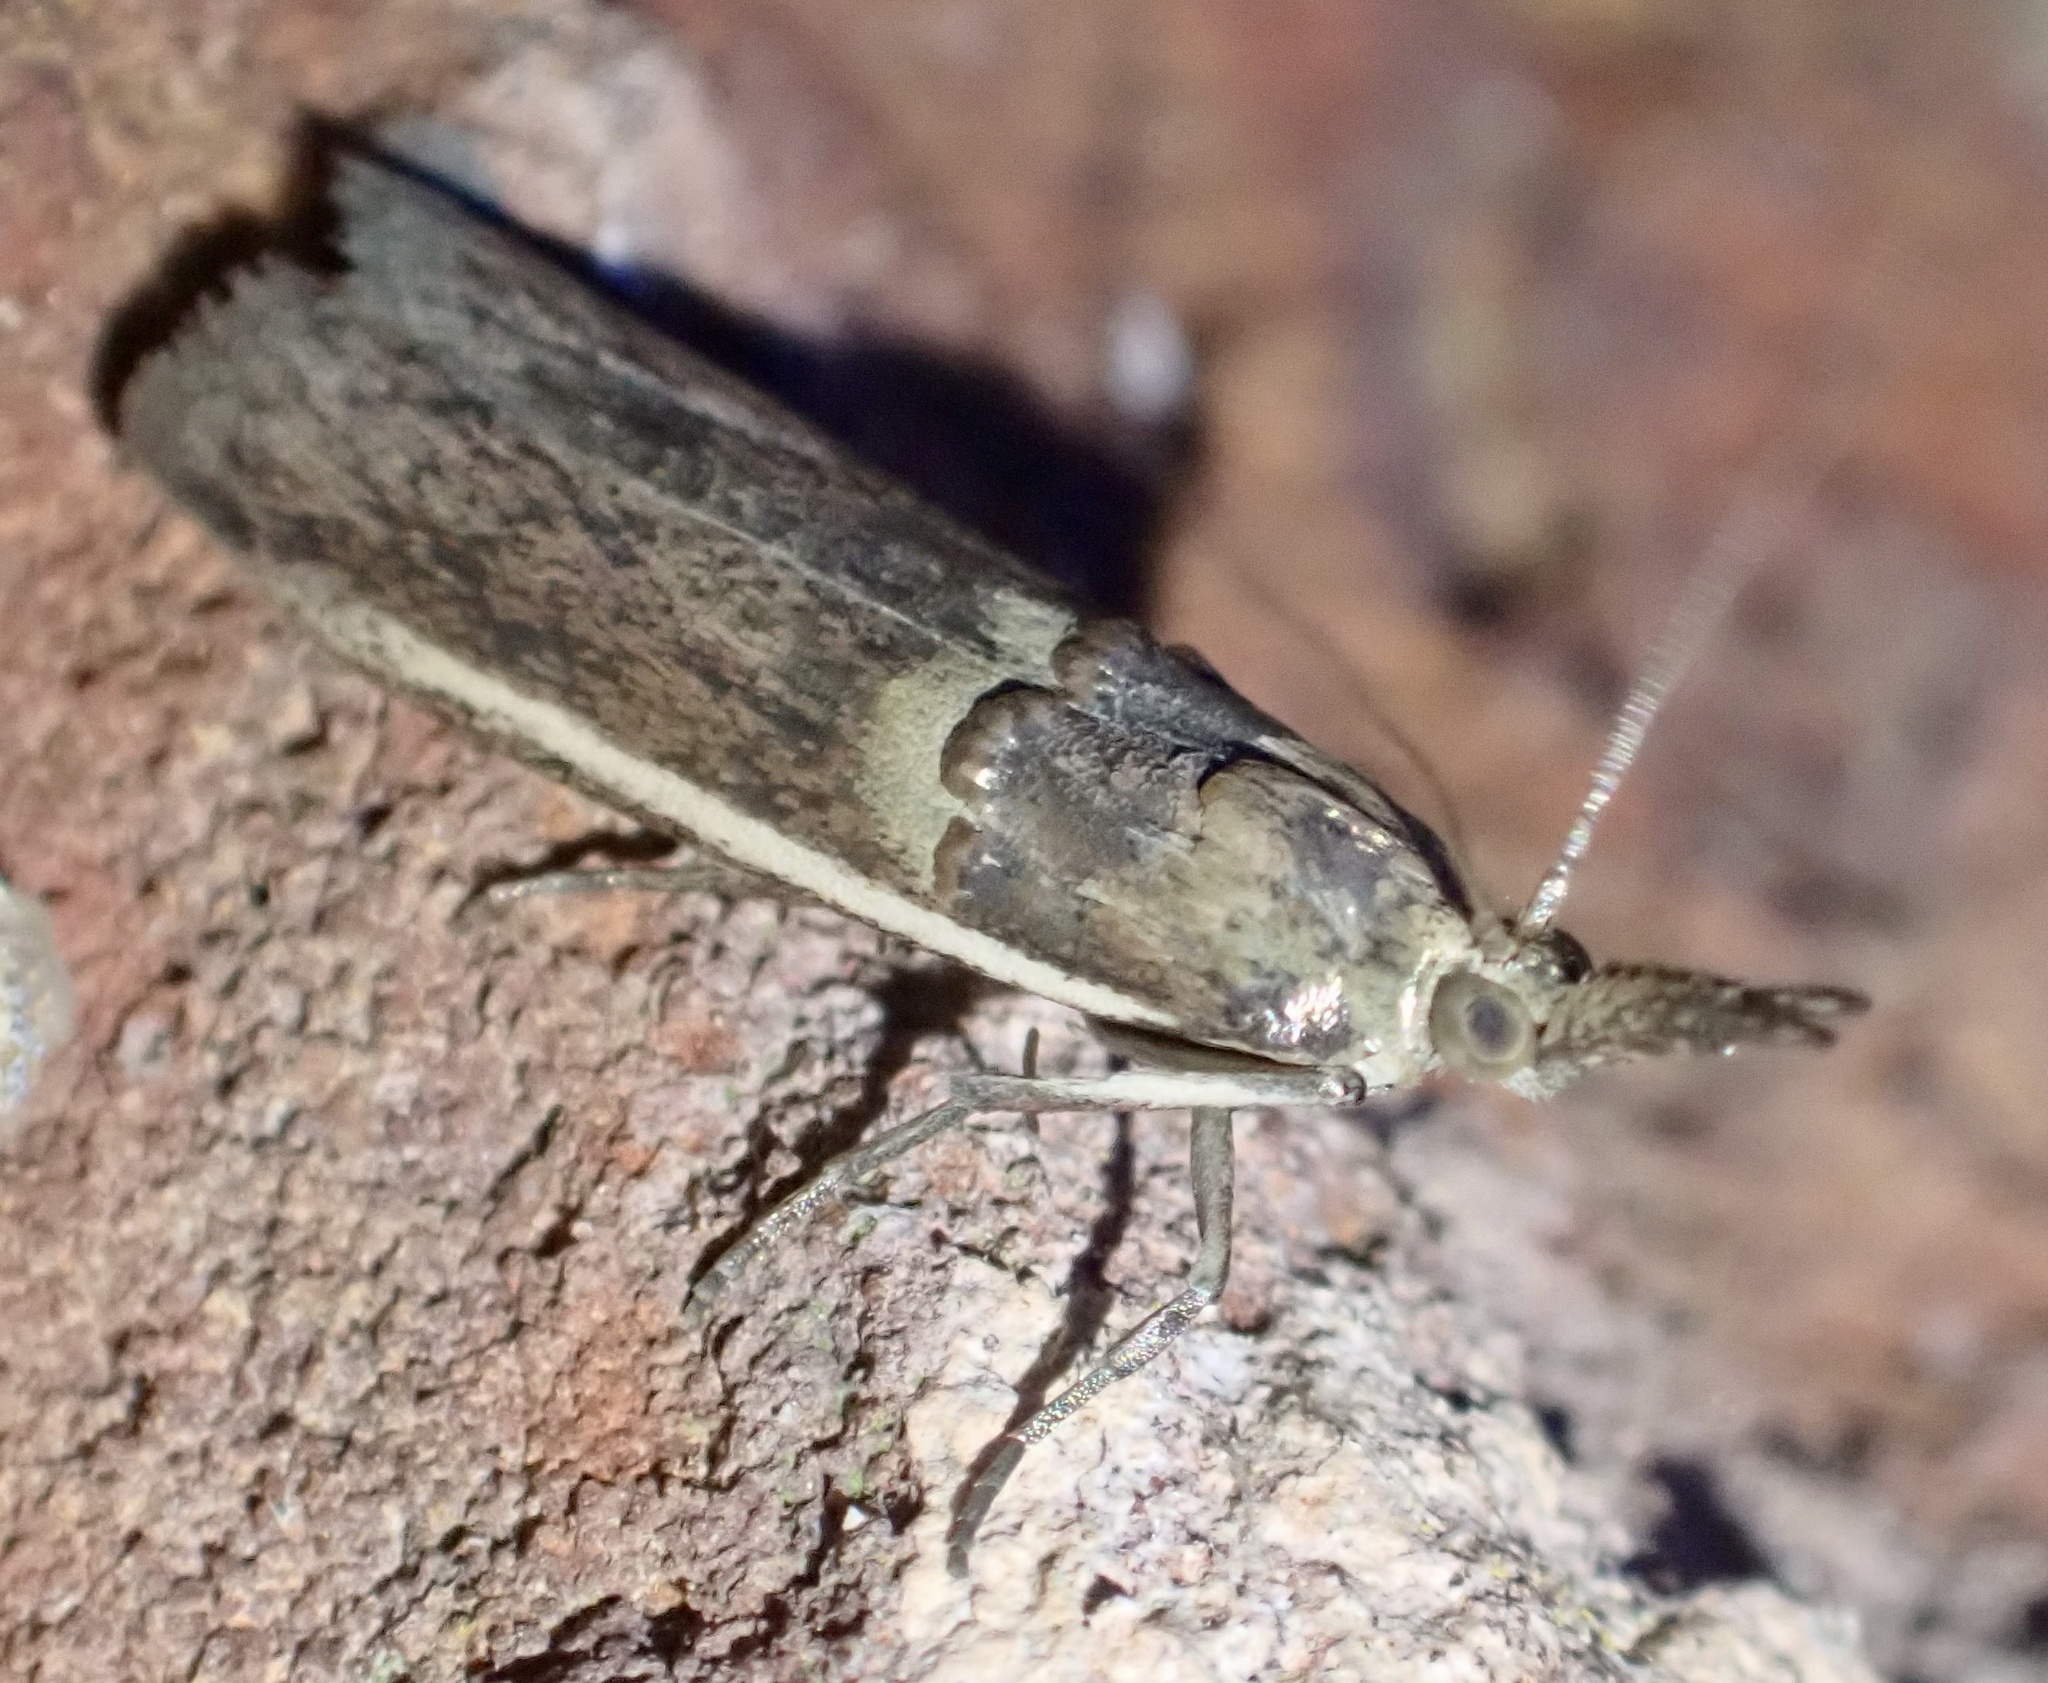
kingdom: Animalia
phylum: Arthropoda
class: Insecta
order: Lepidoptera
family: Pyralidae
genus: Etiella
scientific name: Etiella zinckenella
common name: Gold-banded etiella moth
